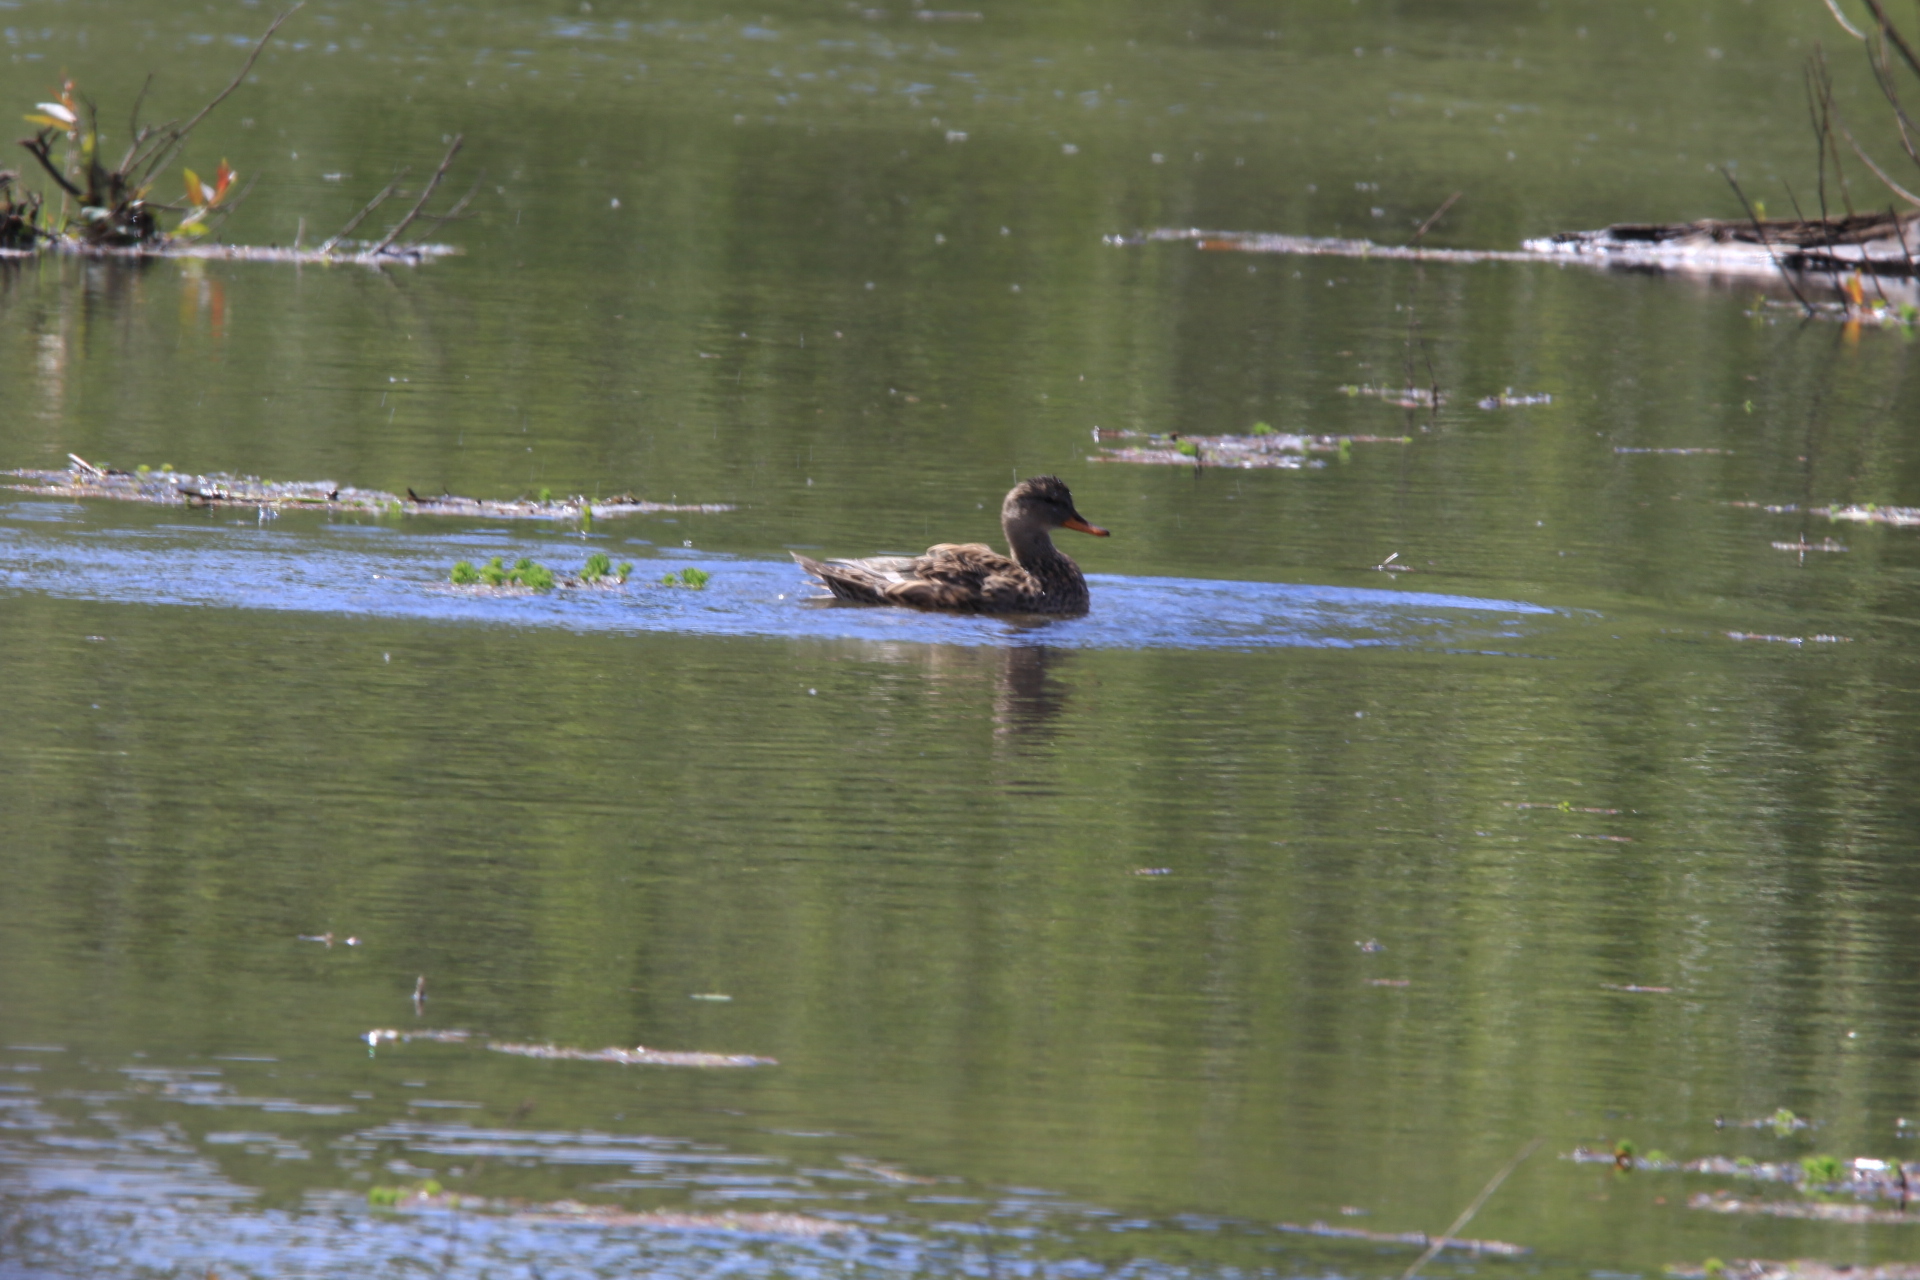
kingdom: Animalia
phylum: Chordata
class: Aves
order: Anseriformes
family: Anatidae
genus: Anas
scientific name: Anas
